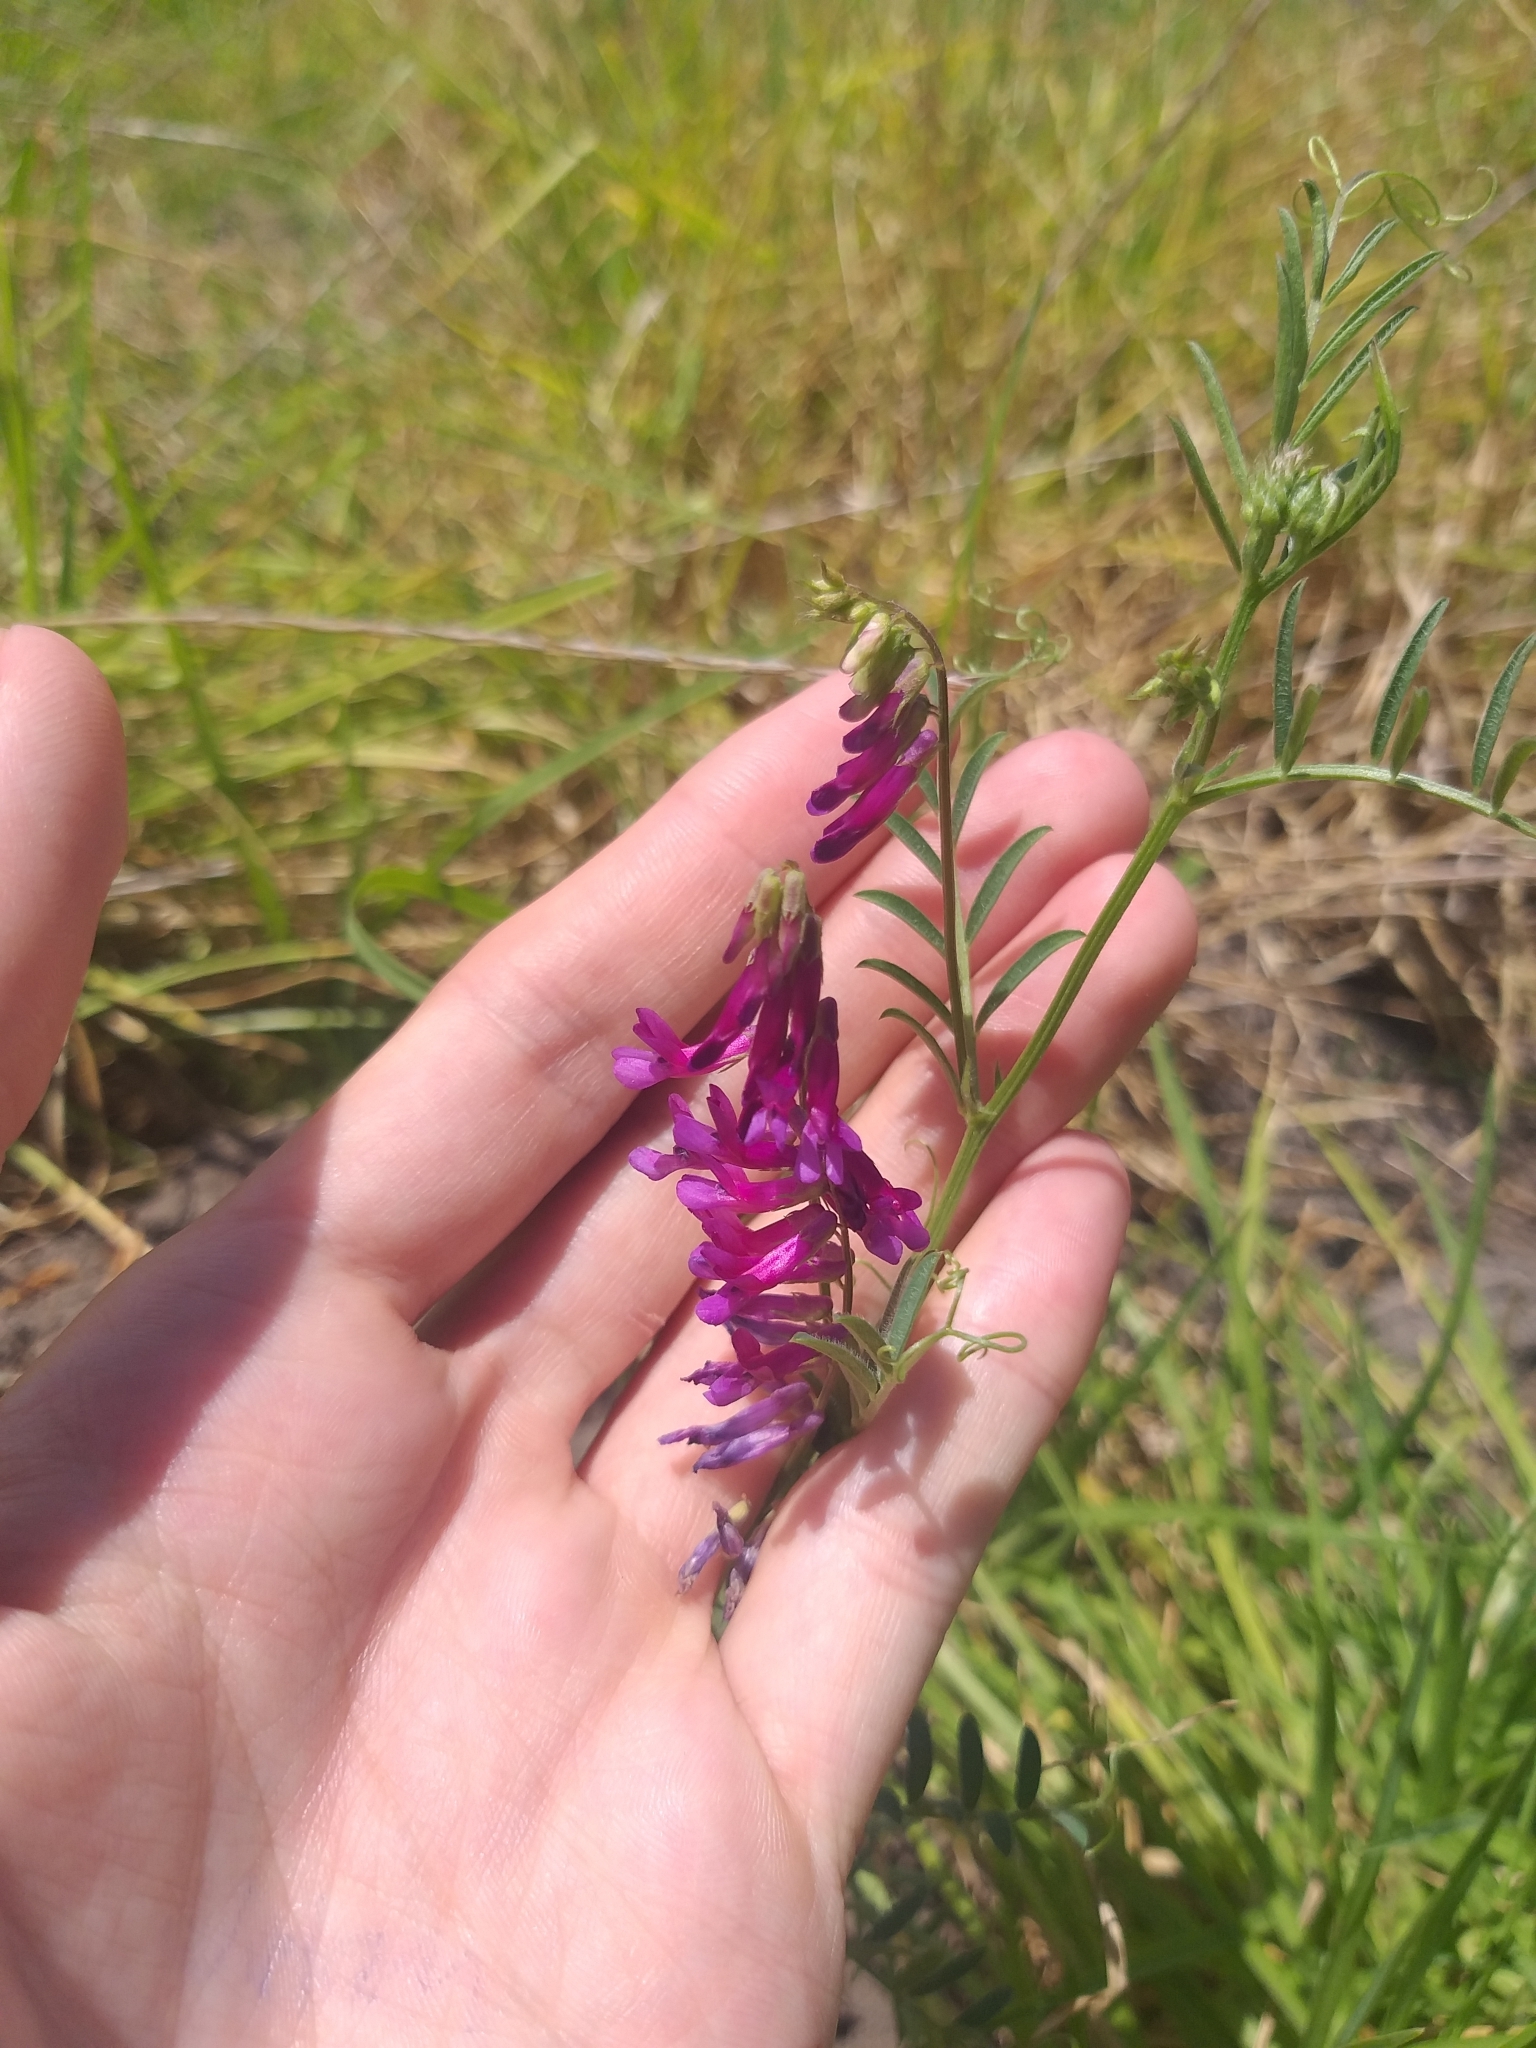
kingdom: Plantae
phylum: Tracheophyta
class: Magnoliopsida
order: Fabales
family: Fabaceae
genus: Vicia
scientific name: Vicia eriocarpa
